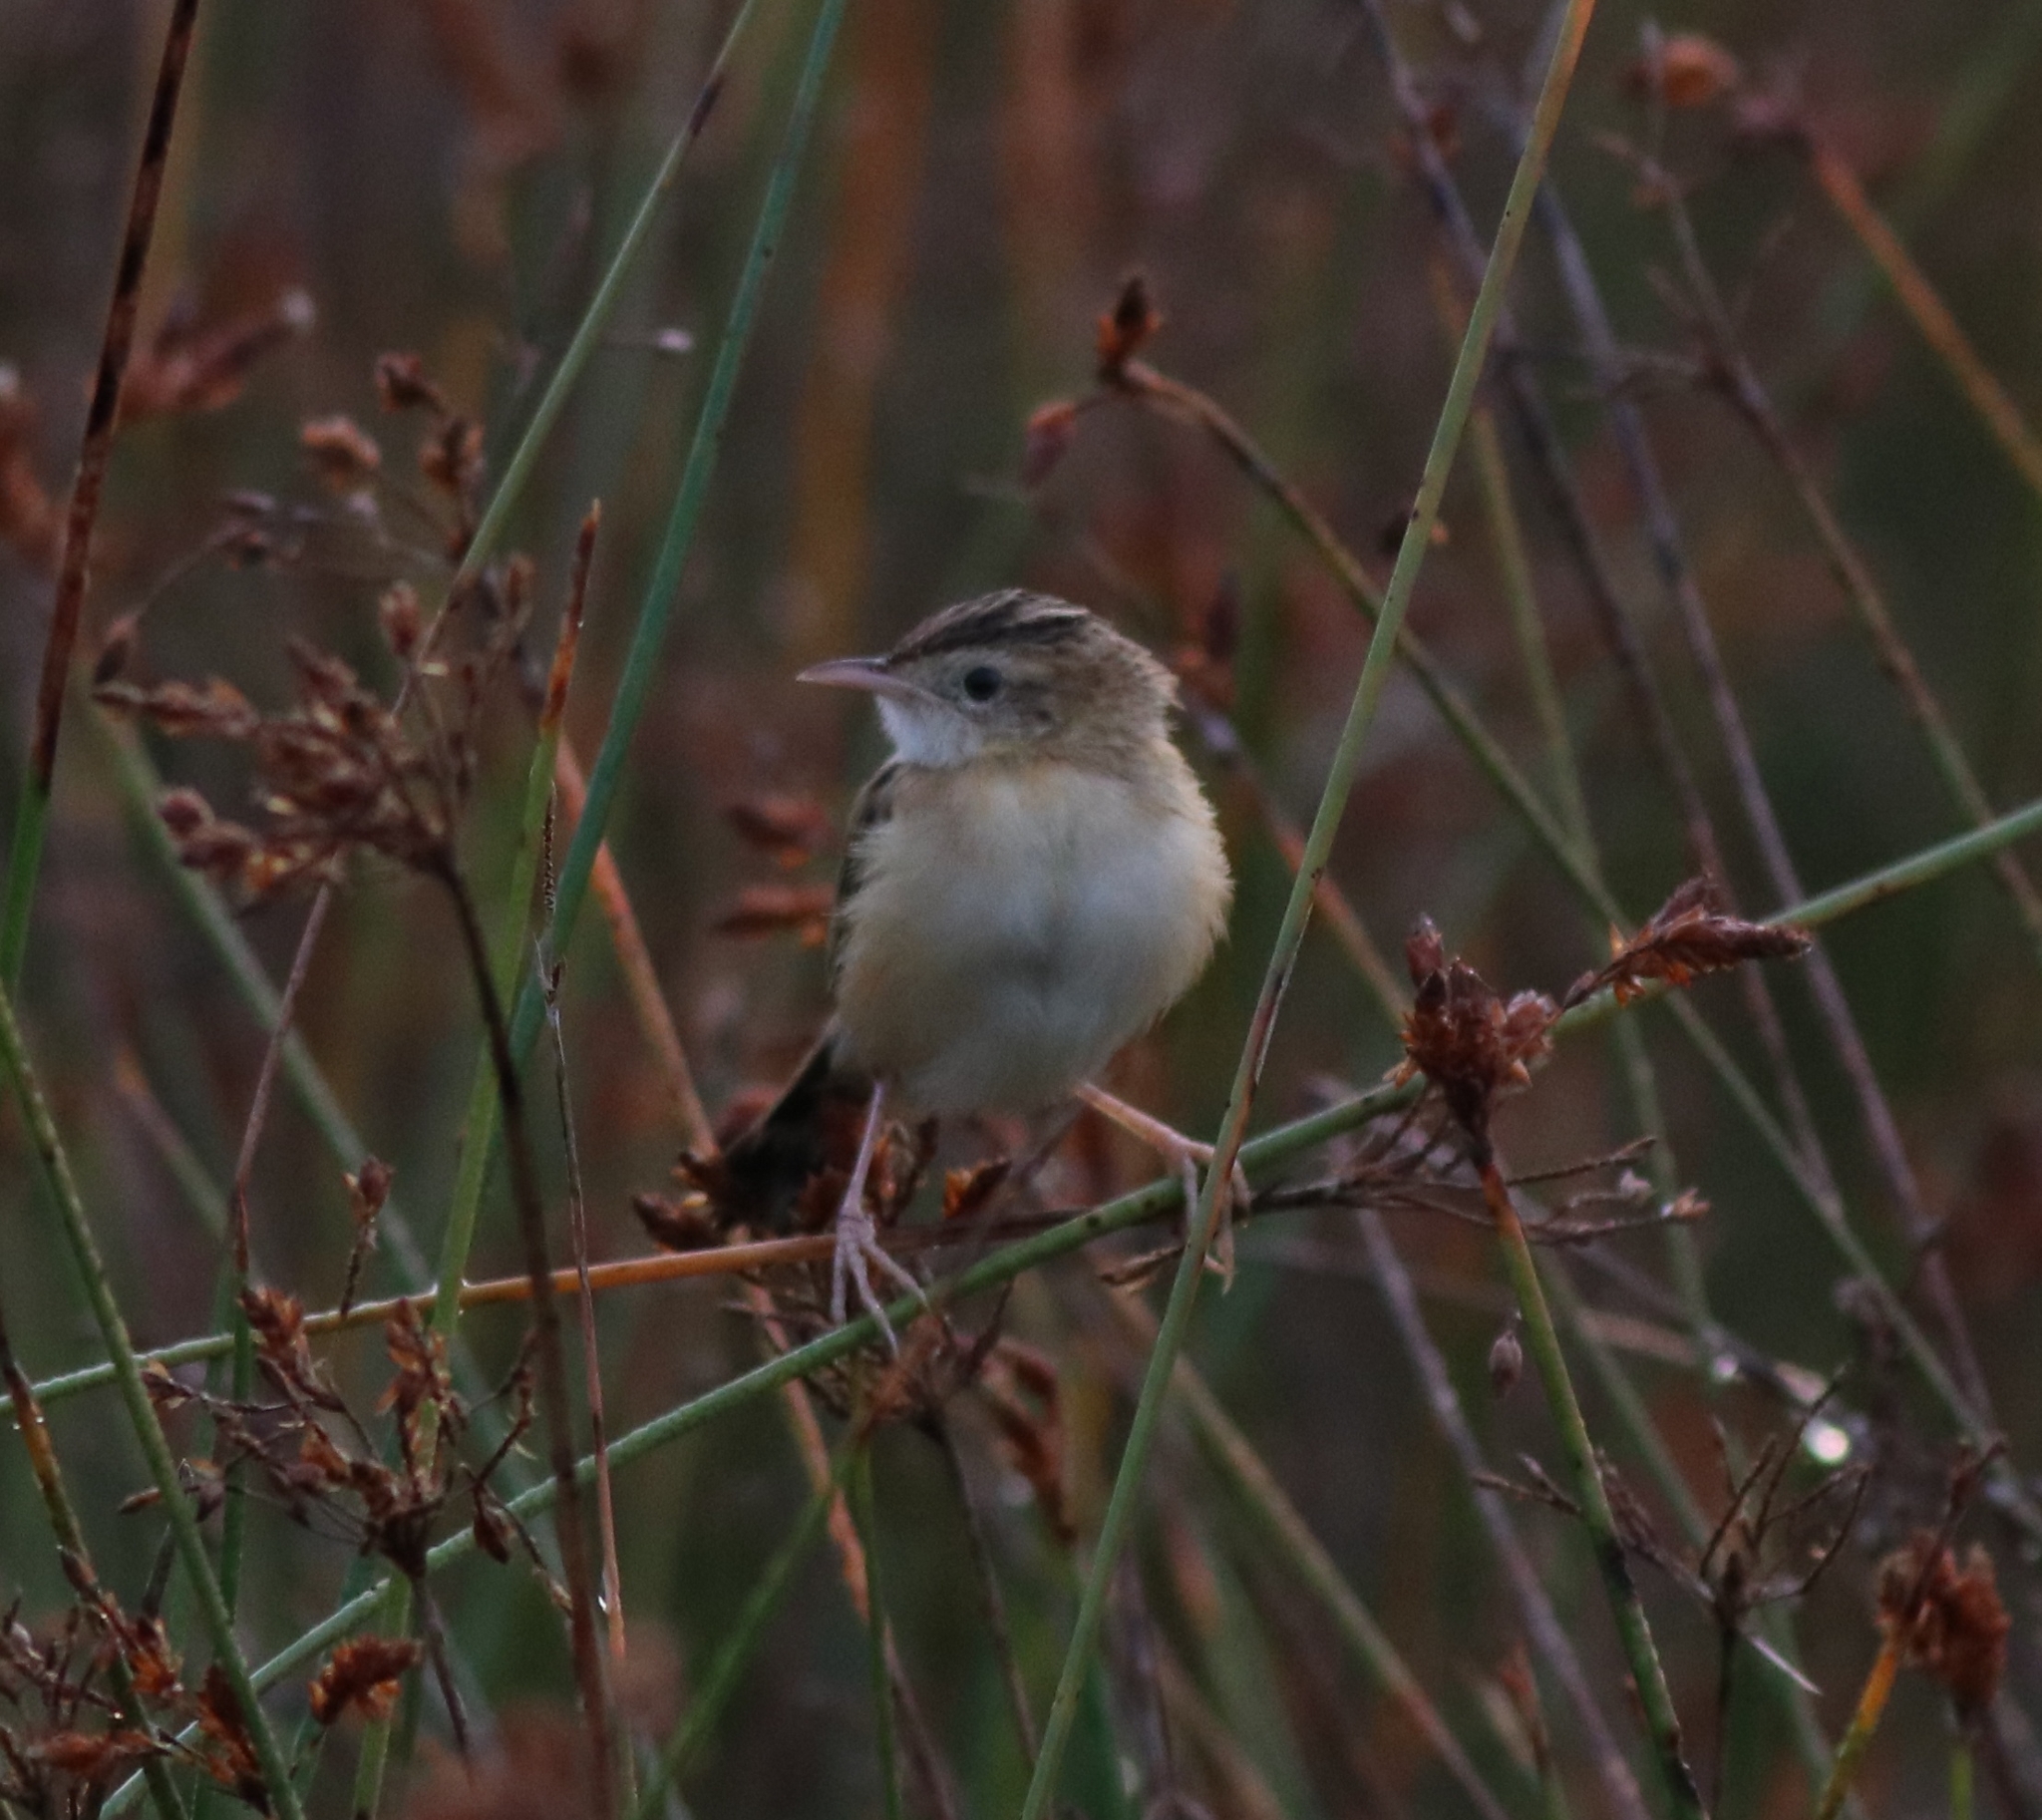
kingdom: Animalia
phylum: Chordata
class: Aves
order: Passeriformes
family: Cisticolidae
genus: Cisticola
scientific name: Cisticola juncidis
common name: Zitting cisticola
